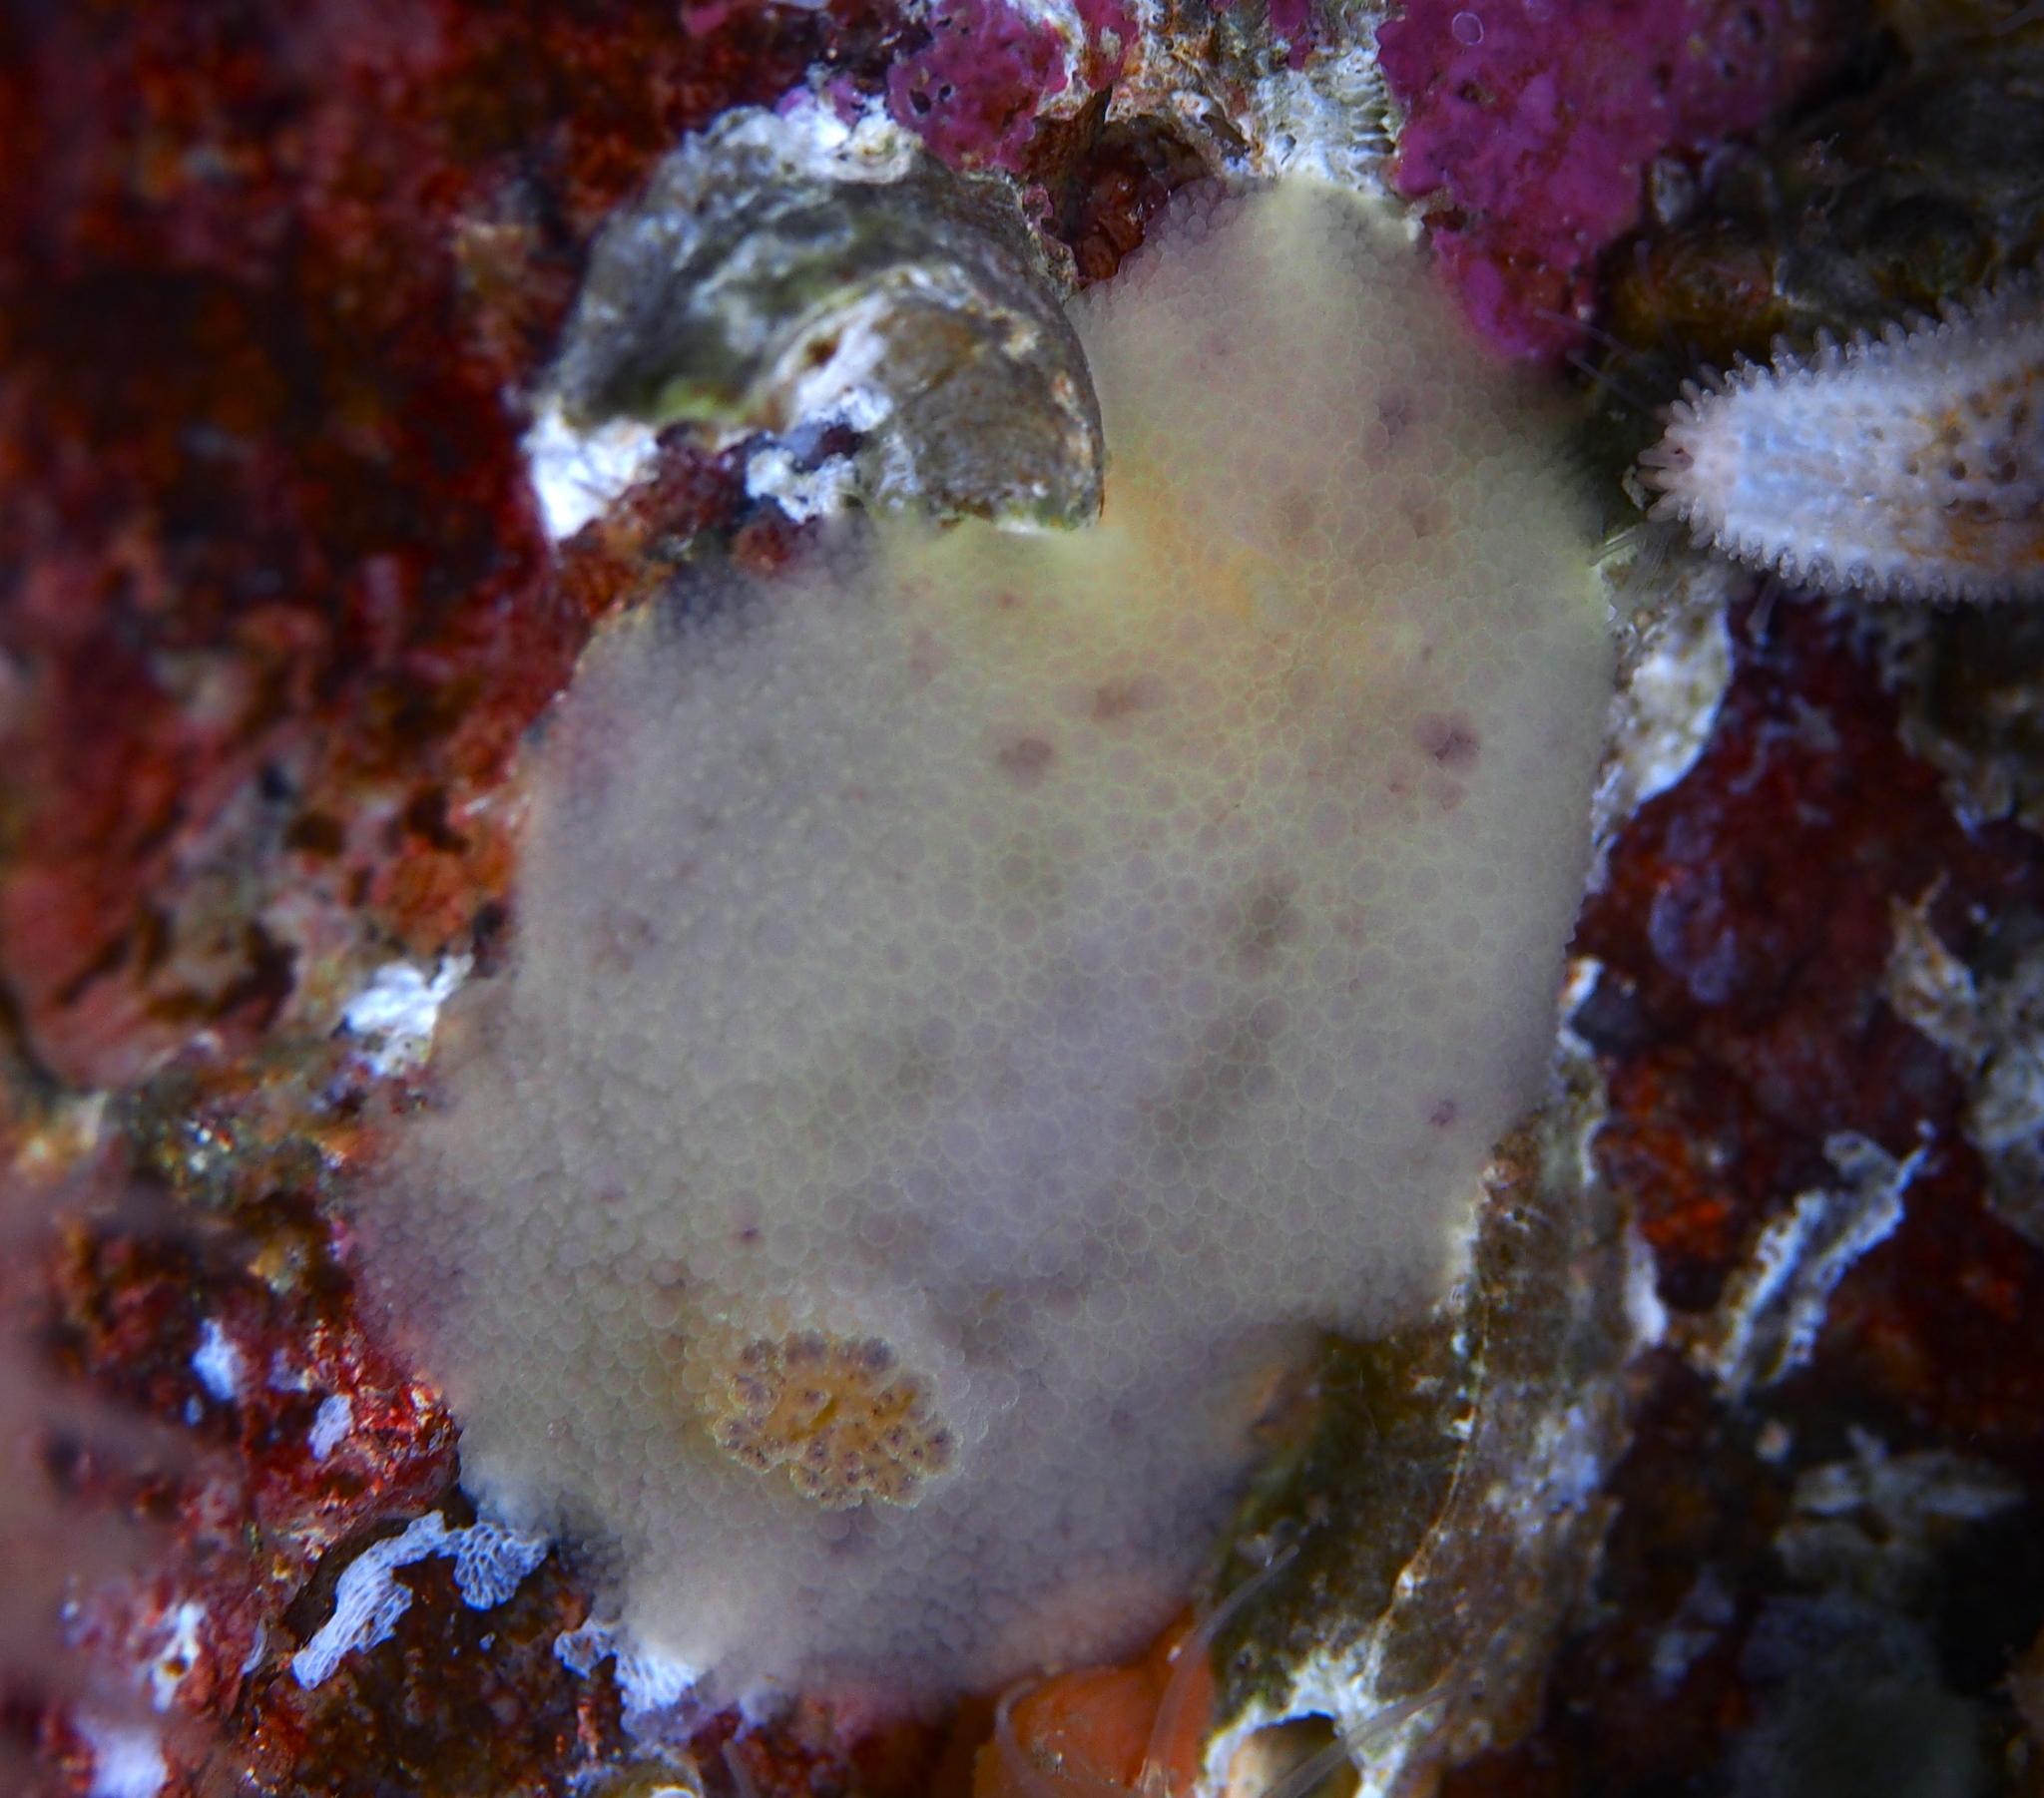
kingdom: Animalia
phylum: Mollusca
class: Gastropoda
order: Nudibranchia
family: Dorididae
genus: Doris
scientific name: Doris pseudoargus
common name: Sea lemon
